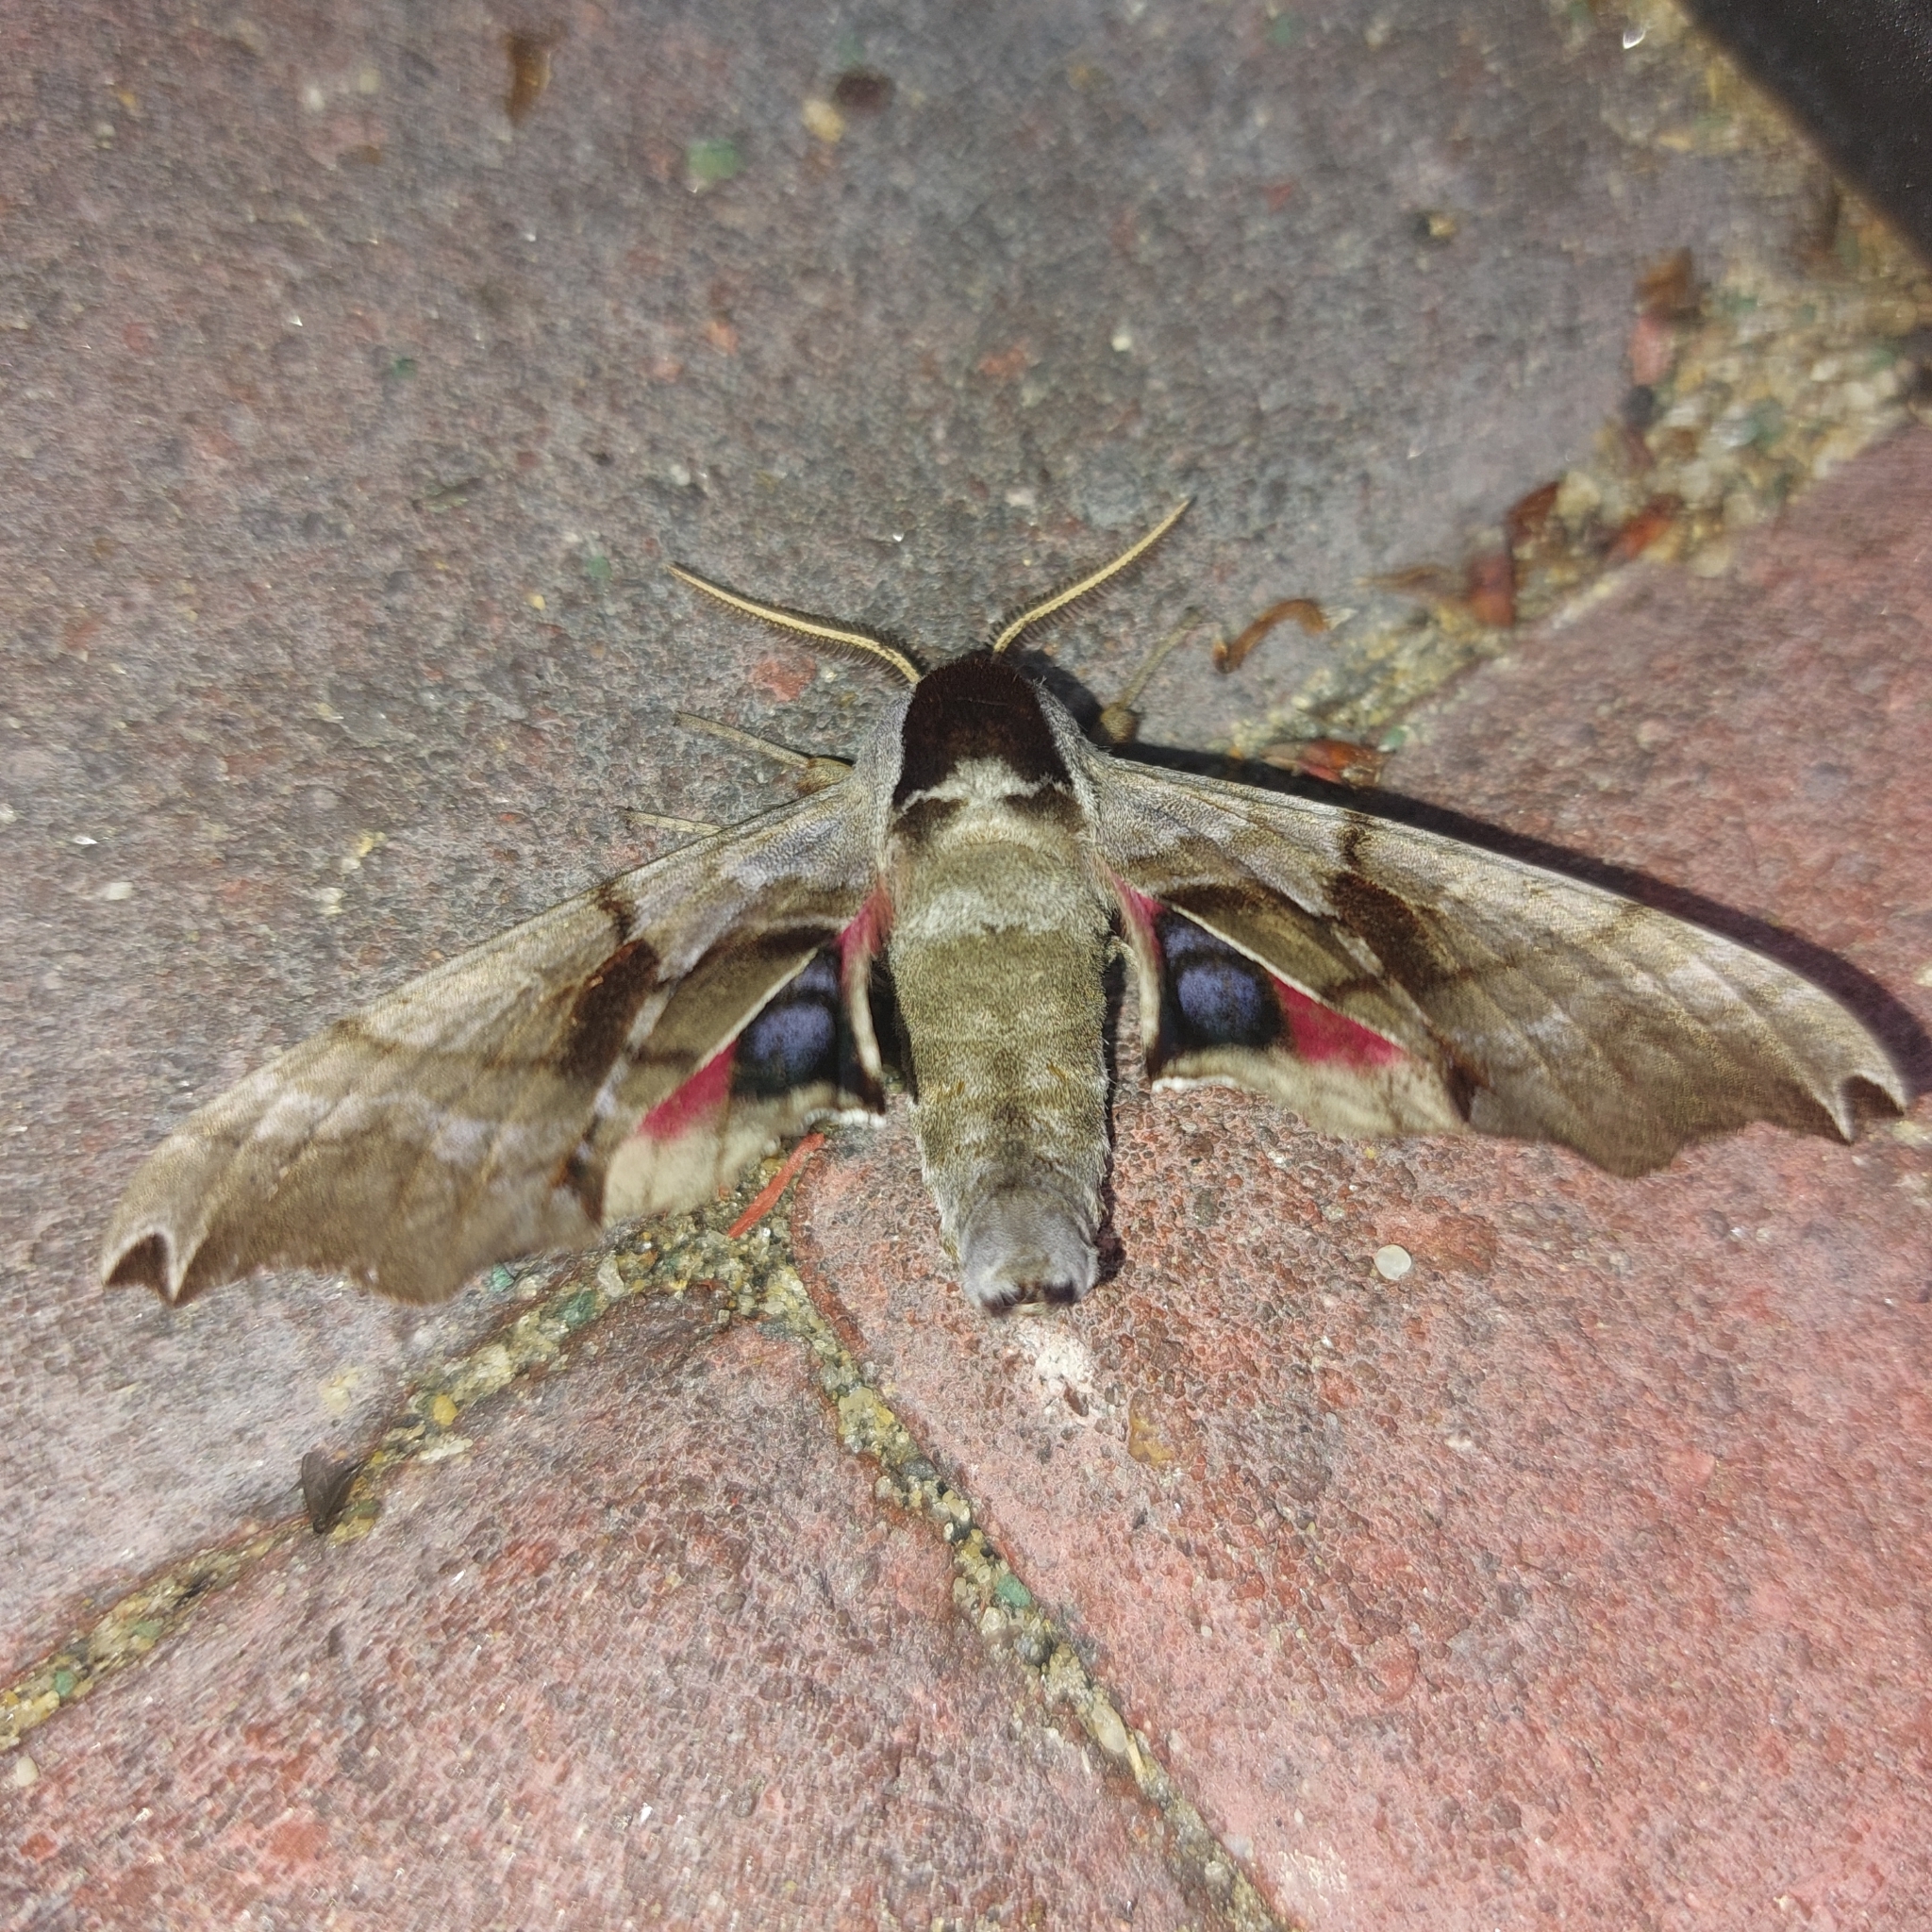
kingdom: Animalia
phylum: Arthropoda
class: Insecta
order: Lepidoptera
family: Sphingidae
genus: Smerinthus
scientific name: Smerinthus jamaicensis
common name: Twin spotted sphinx
